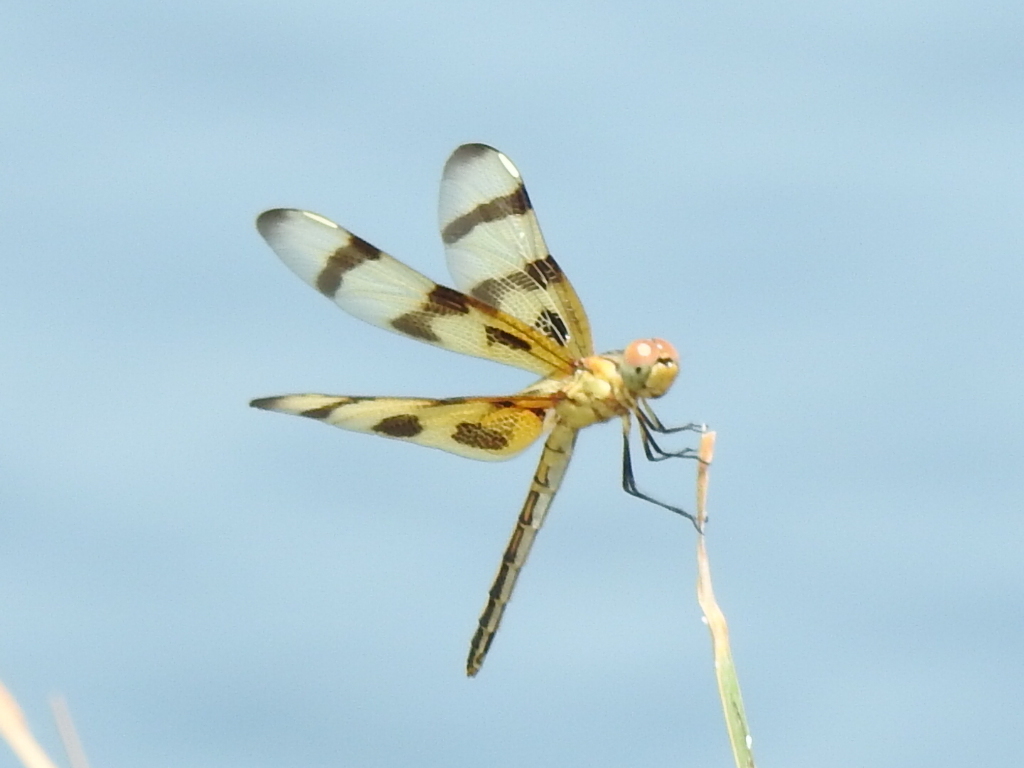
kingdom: Animalia
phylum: Arthropoda
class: Insecta
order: Odonata
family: Libellulidae
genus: Celithemis
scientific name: Celithemis eponina
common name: Halloween pennant
